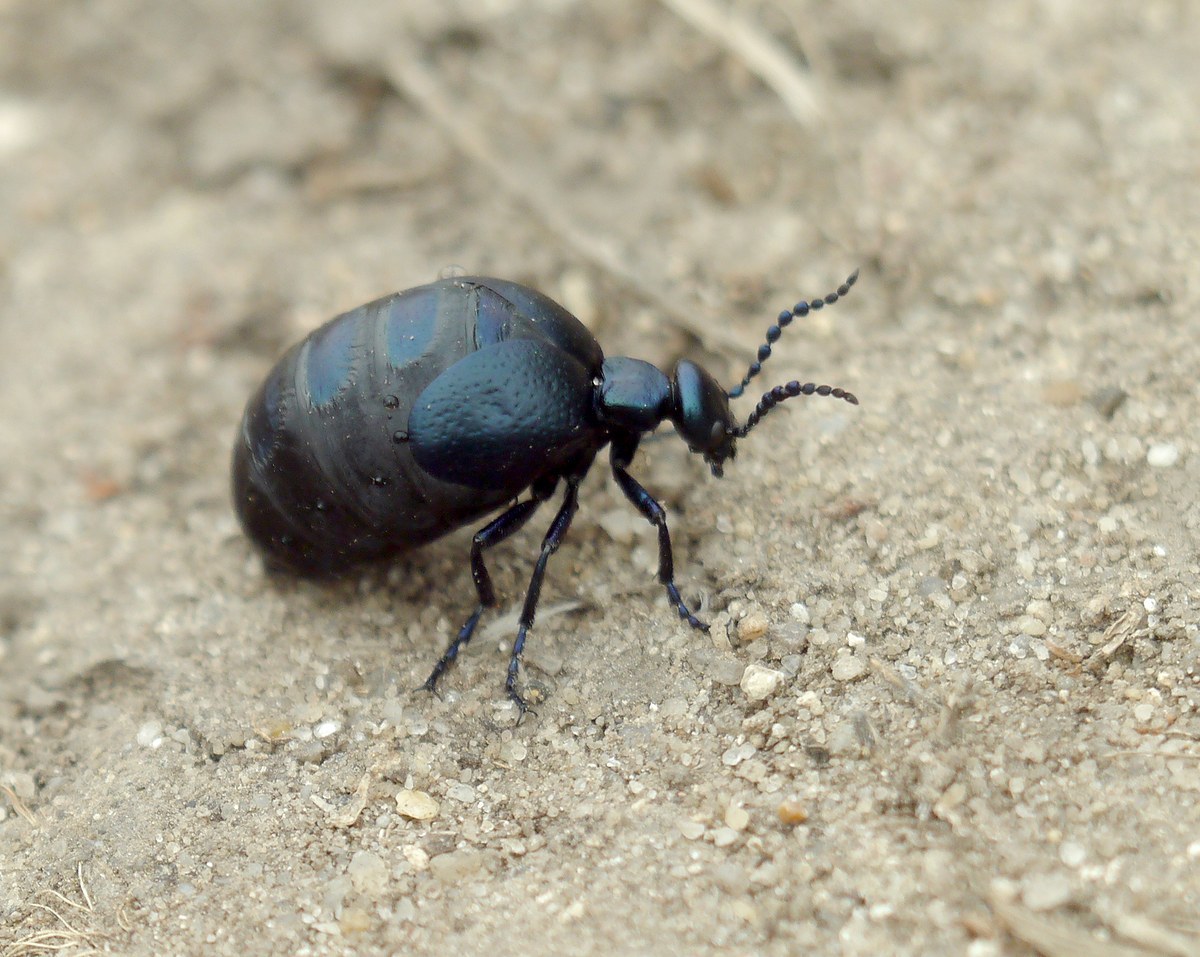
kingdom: Animalia
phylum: Arthropoda
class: Insecta
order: Coleoptera
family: Meloidae
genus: Meloe
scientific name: Meloe autumnalis
